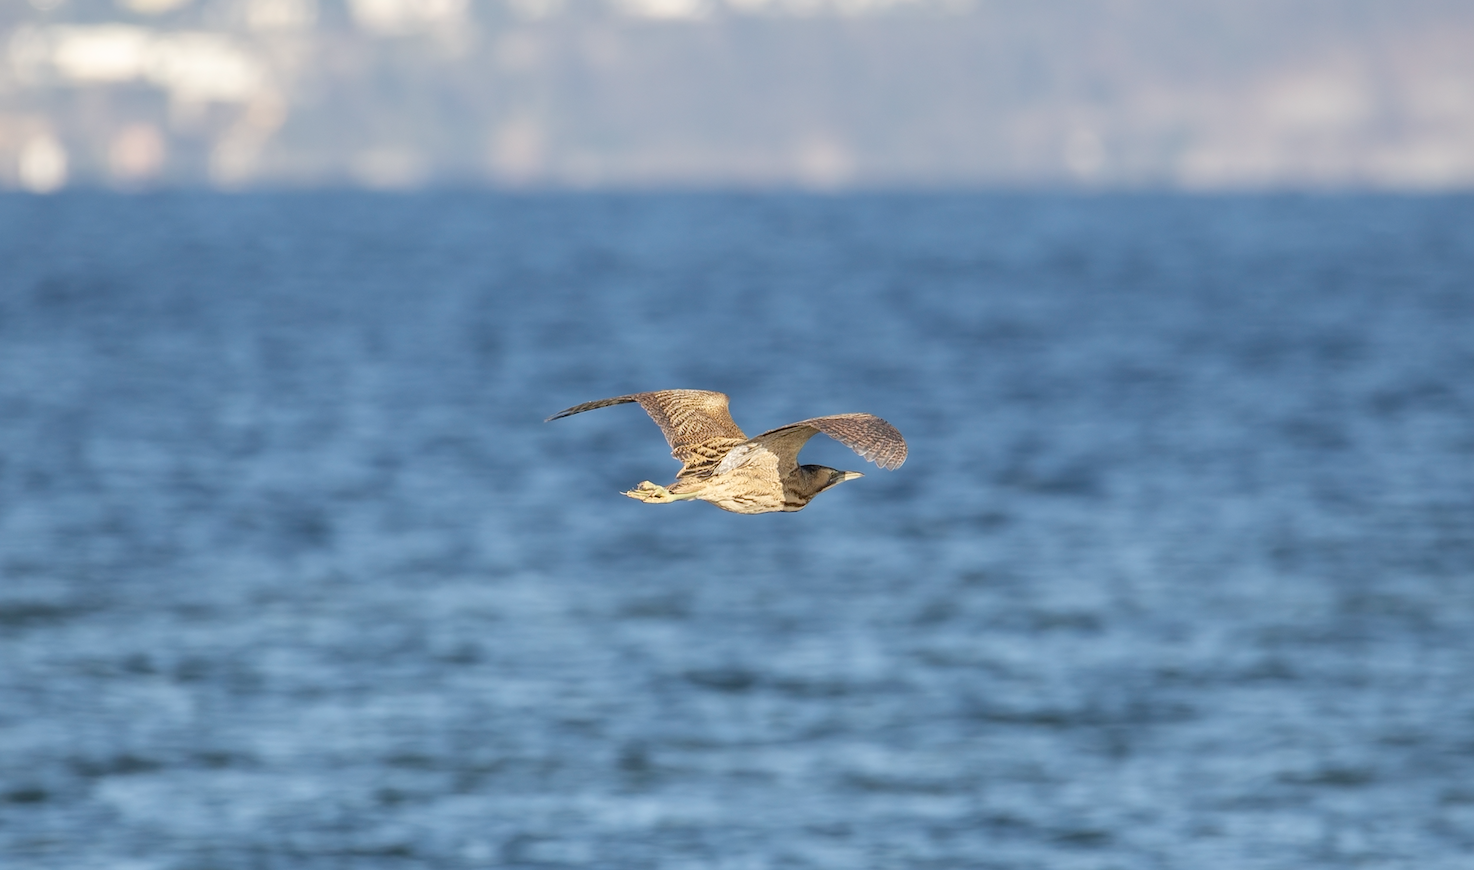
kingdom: Animalia
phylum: Chordata
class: Aves
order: Pelecaniformes
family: Ardeidae
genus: Botaurus
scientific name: Botaurus stellaris
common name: Eurasian bittern
